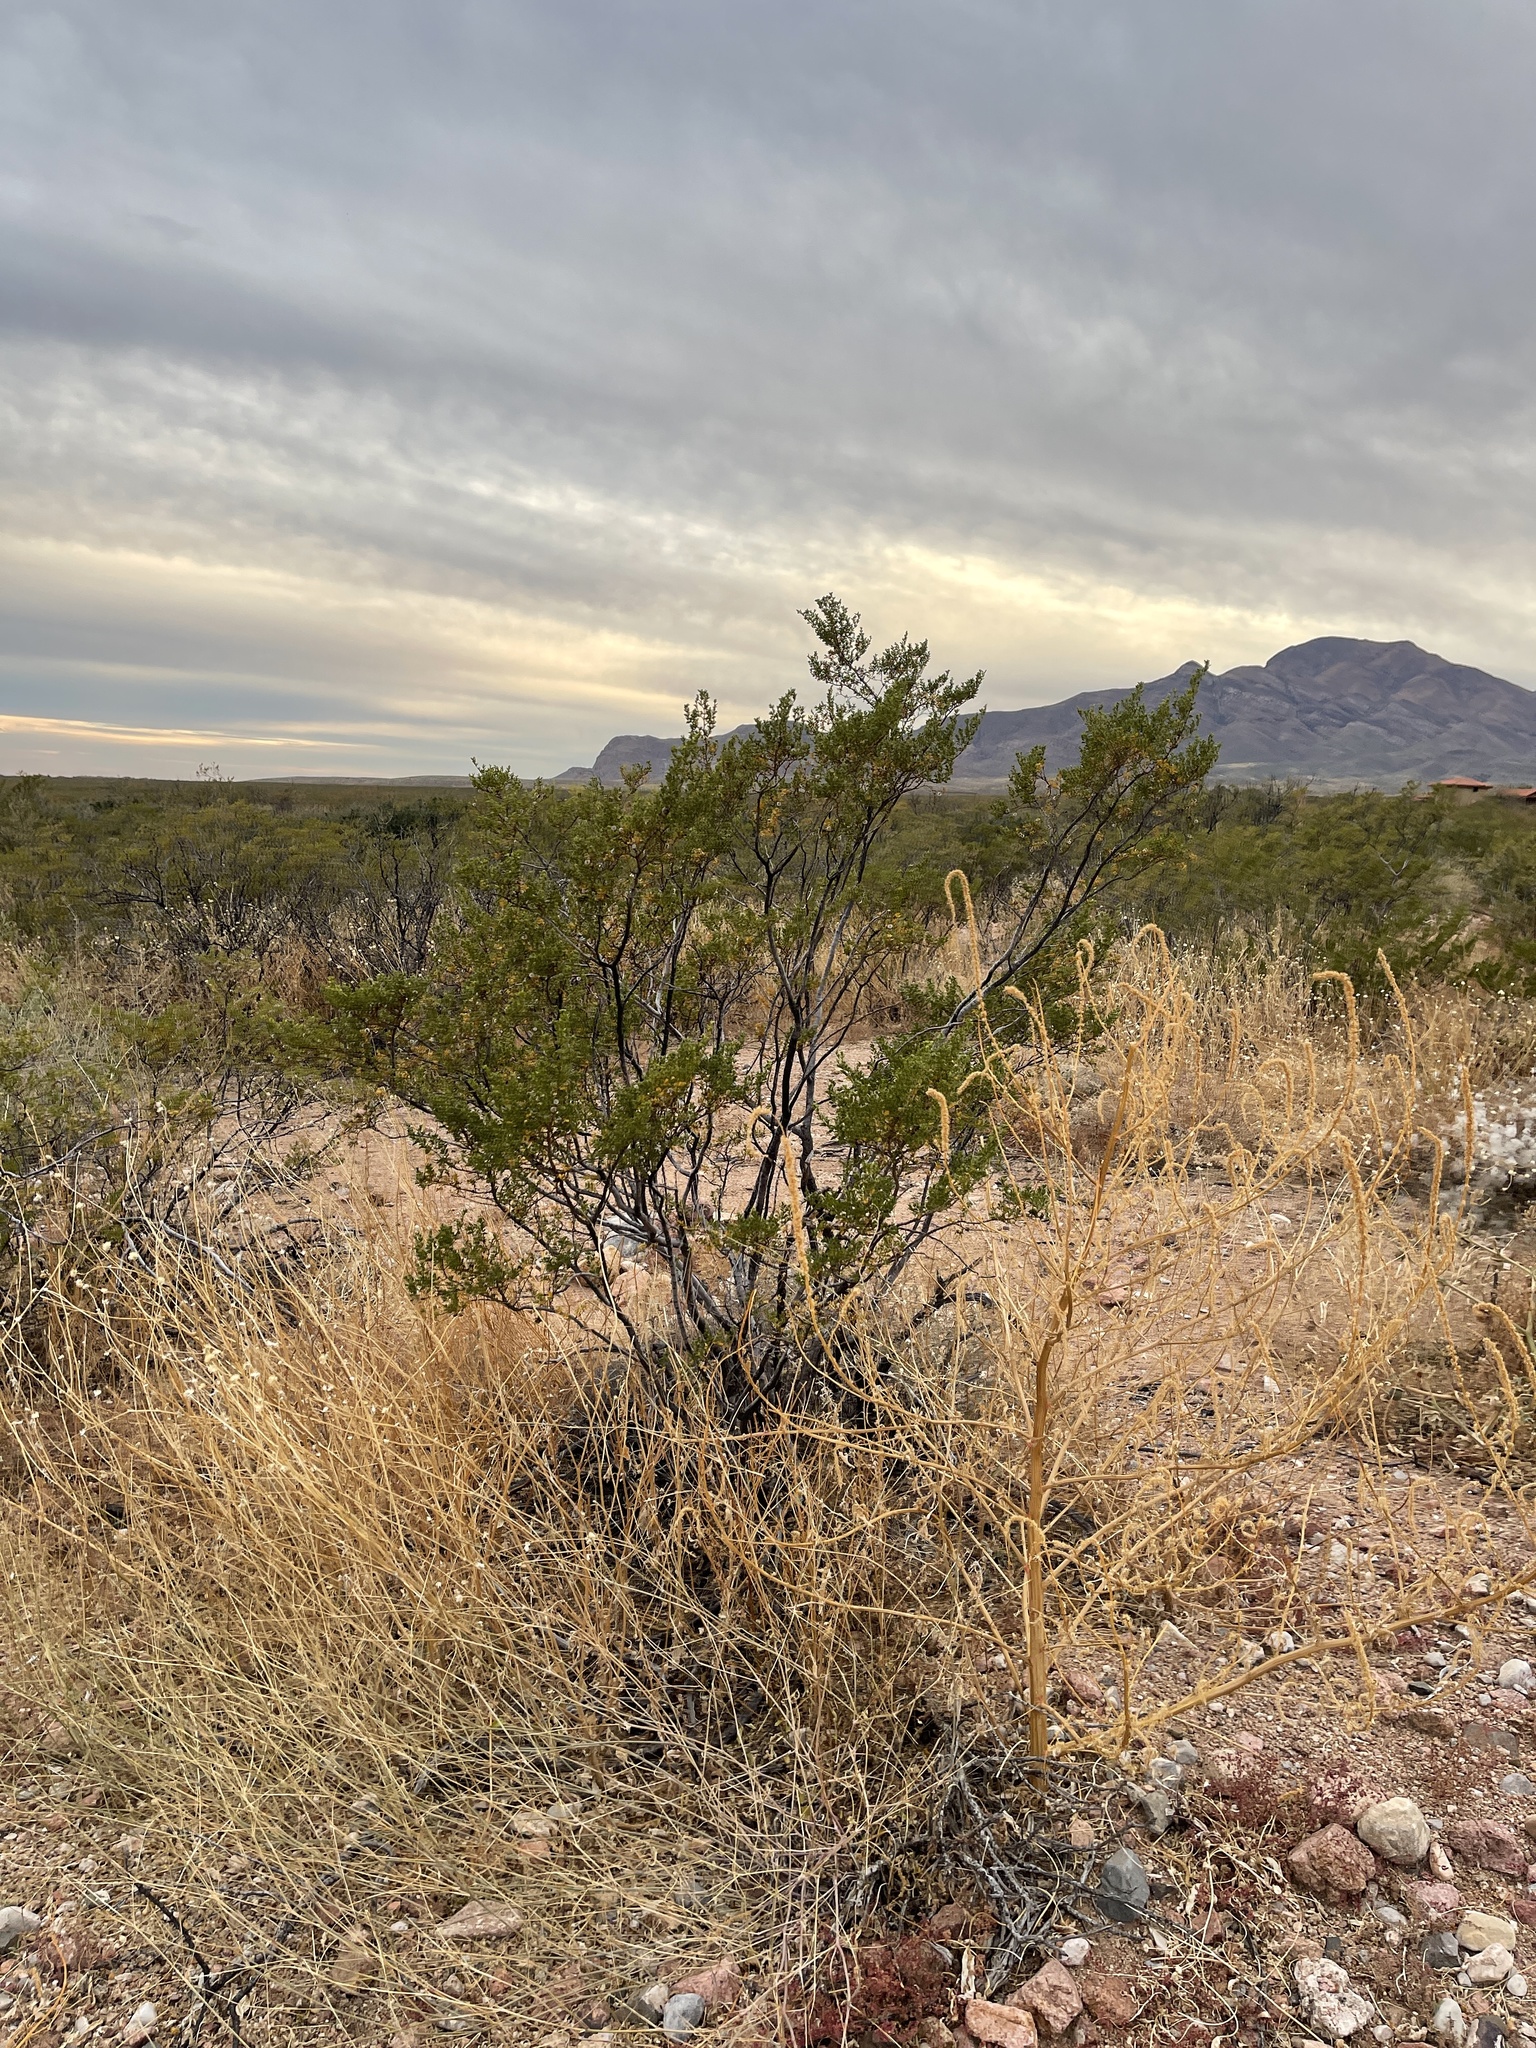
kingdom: Plantae
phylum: Tracheophyta
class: Magnoliopsida
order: Zygophyllales
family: Zygophyllaceae
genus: Larrea
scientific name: Larrea tridentata
